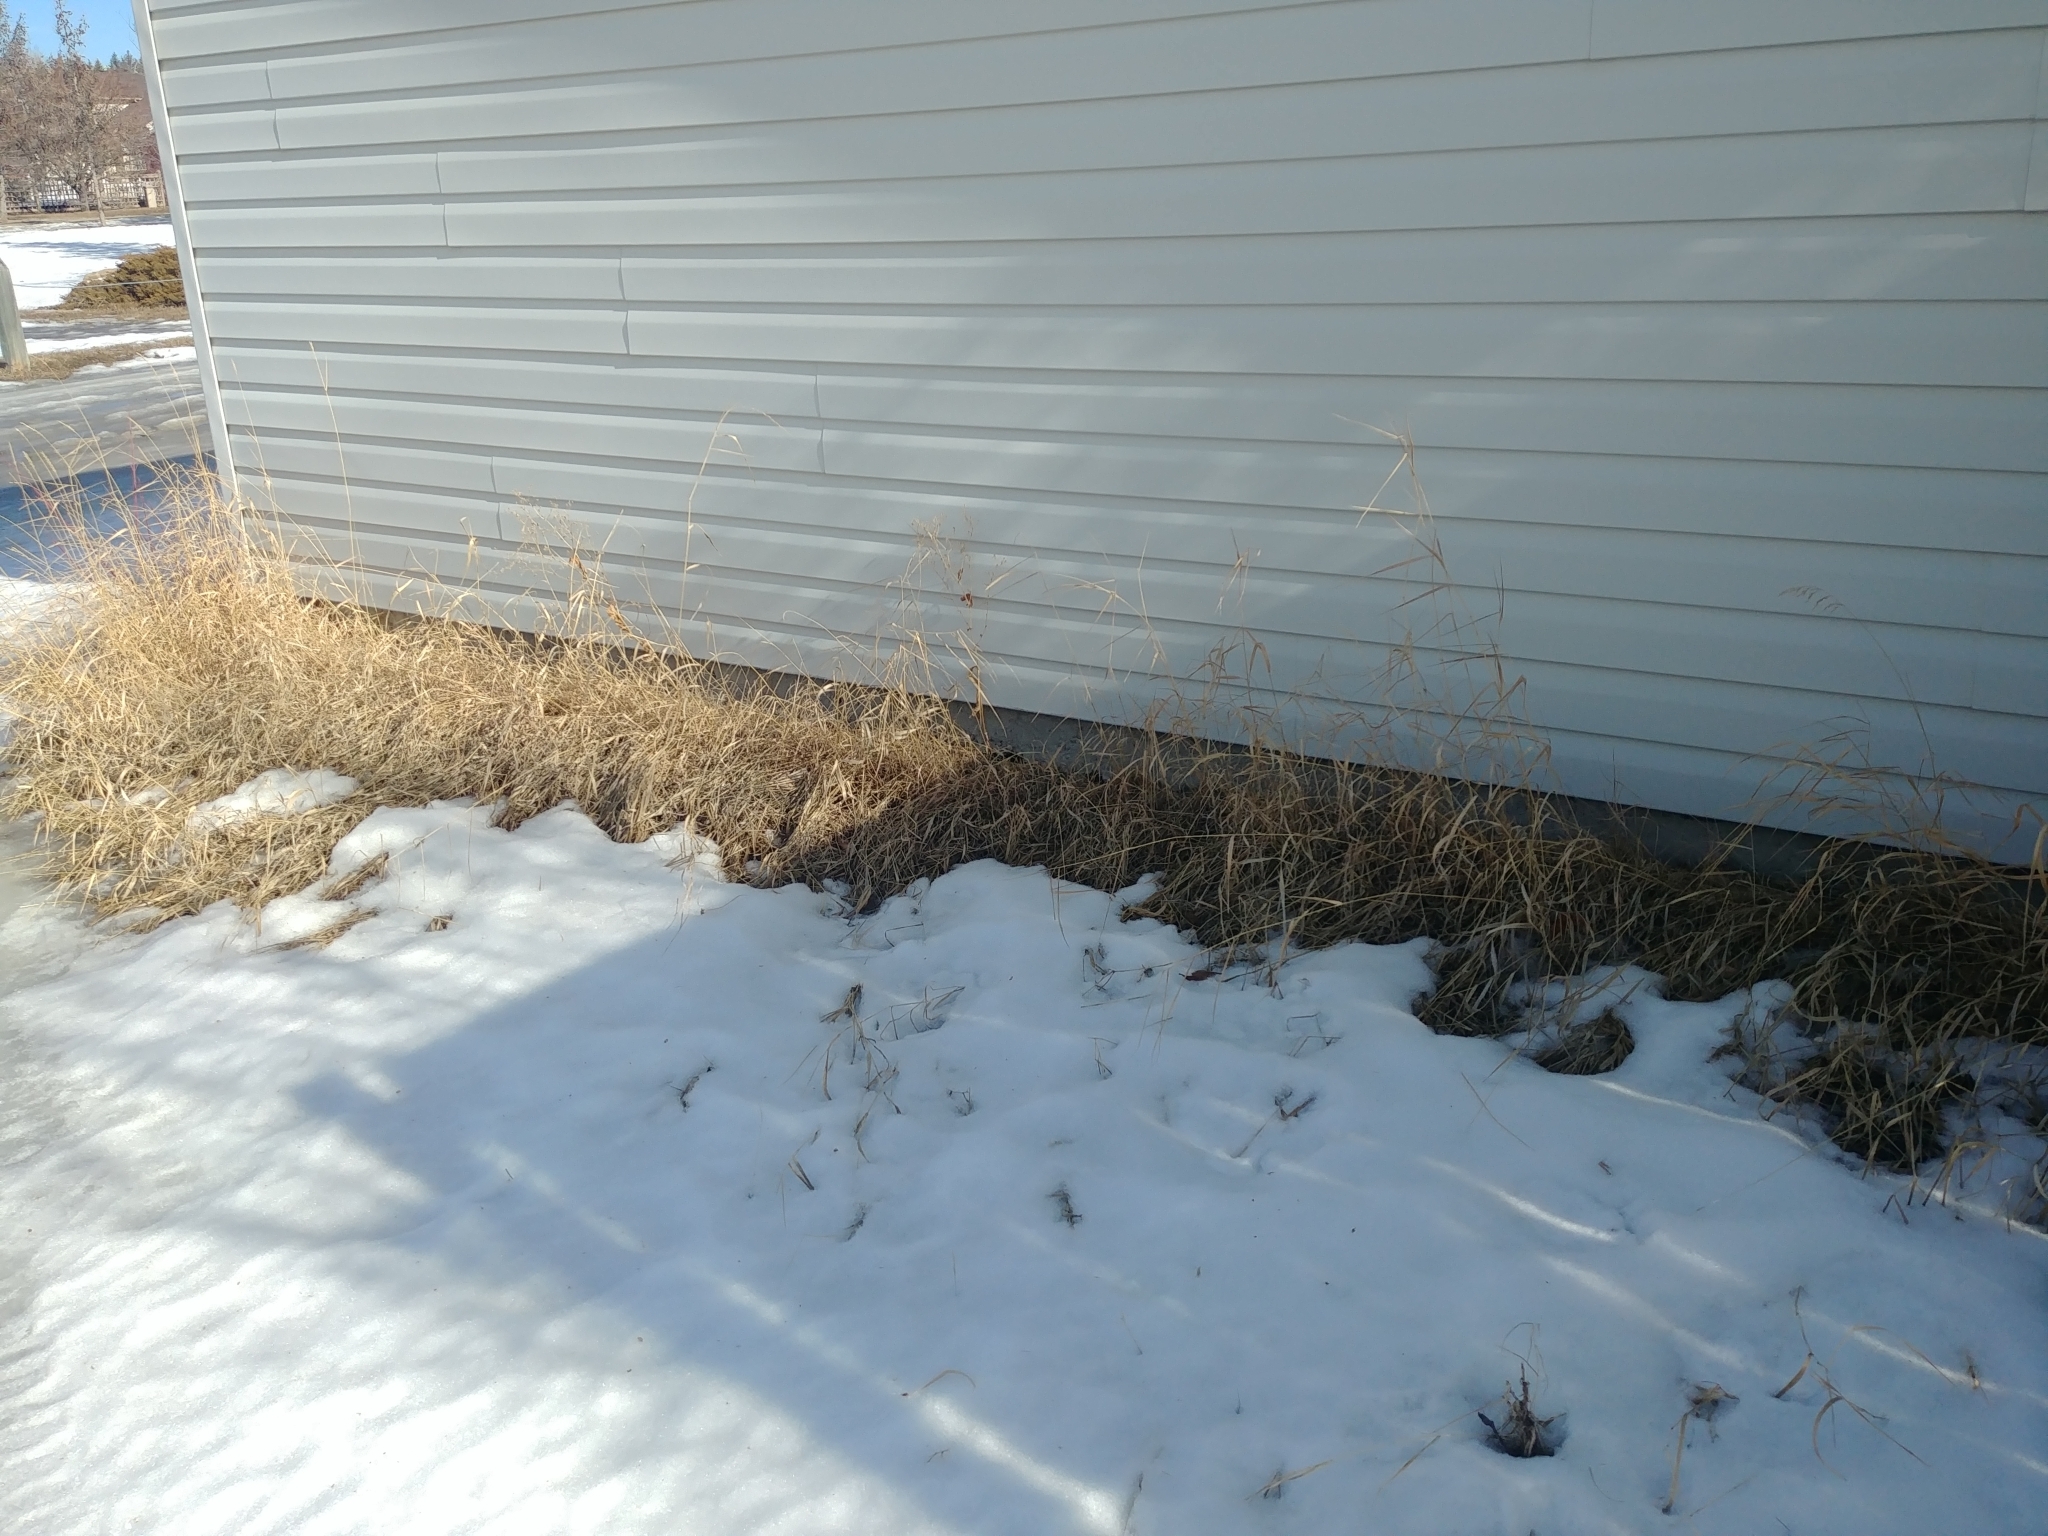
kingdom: Plantae
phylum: Tracheophyta
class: Liliopsida
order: Poales
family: Poaceae
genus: Bromus
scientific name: Bromus inermis
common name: Smooth brome
